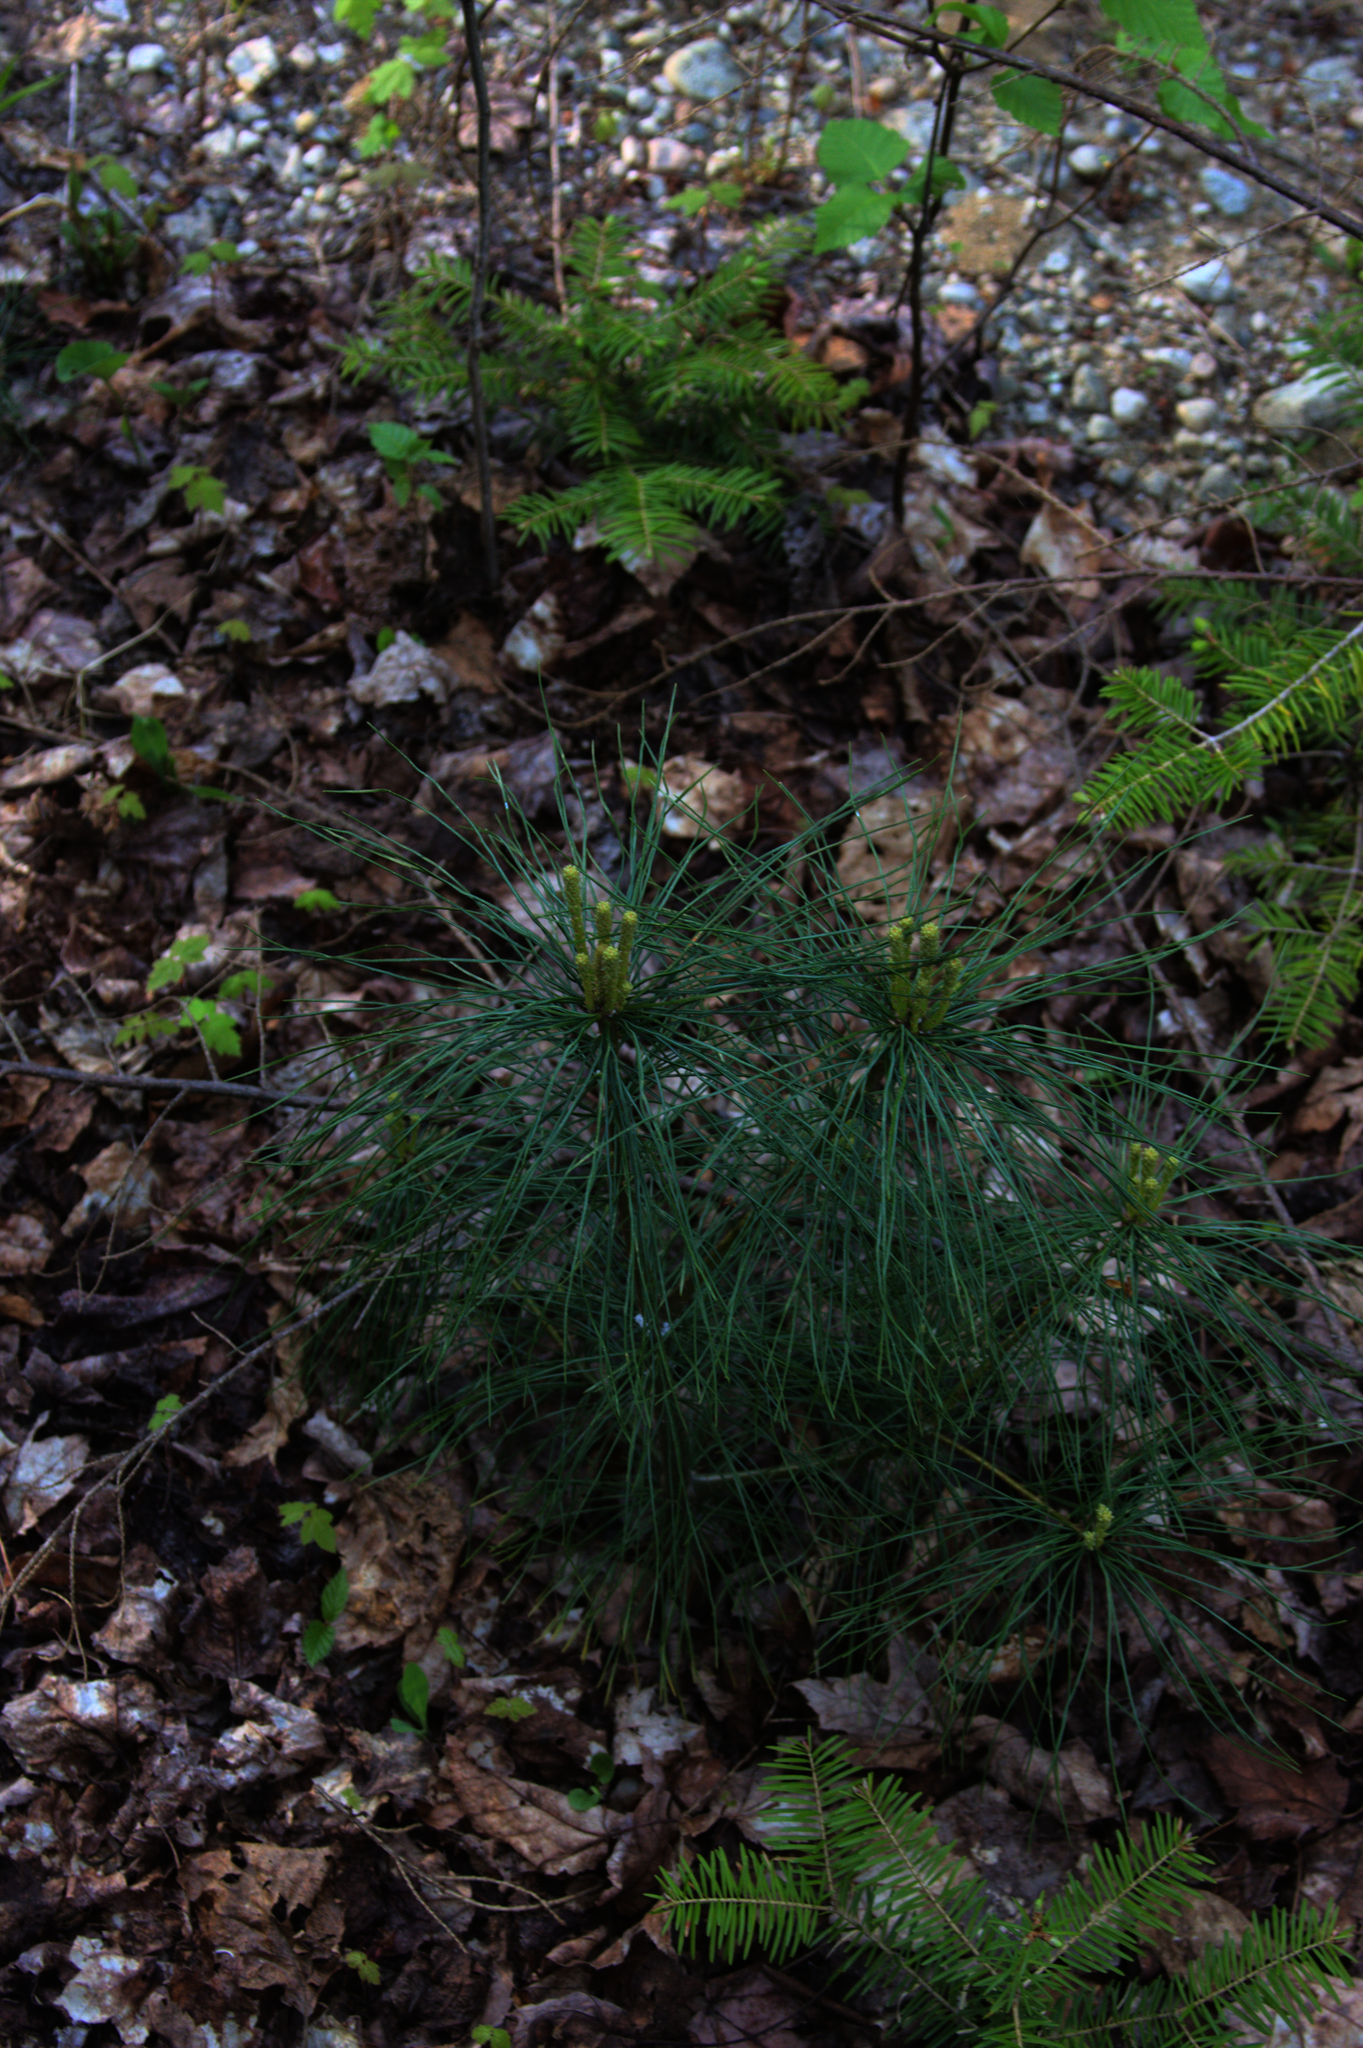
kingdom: Plantae
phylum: Tracheophyta
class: Pinopsida
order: Pinales
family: Pinaceae
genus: Pinus
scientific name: Pinus strobus
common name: Weymouth pine
